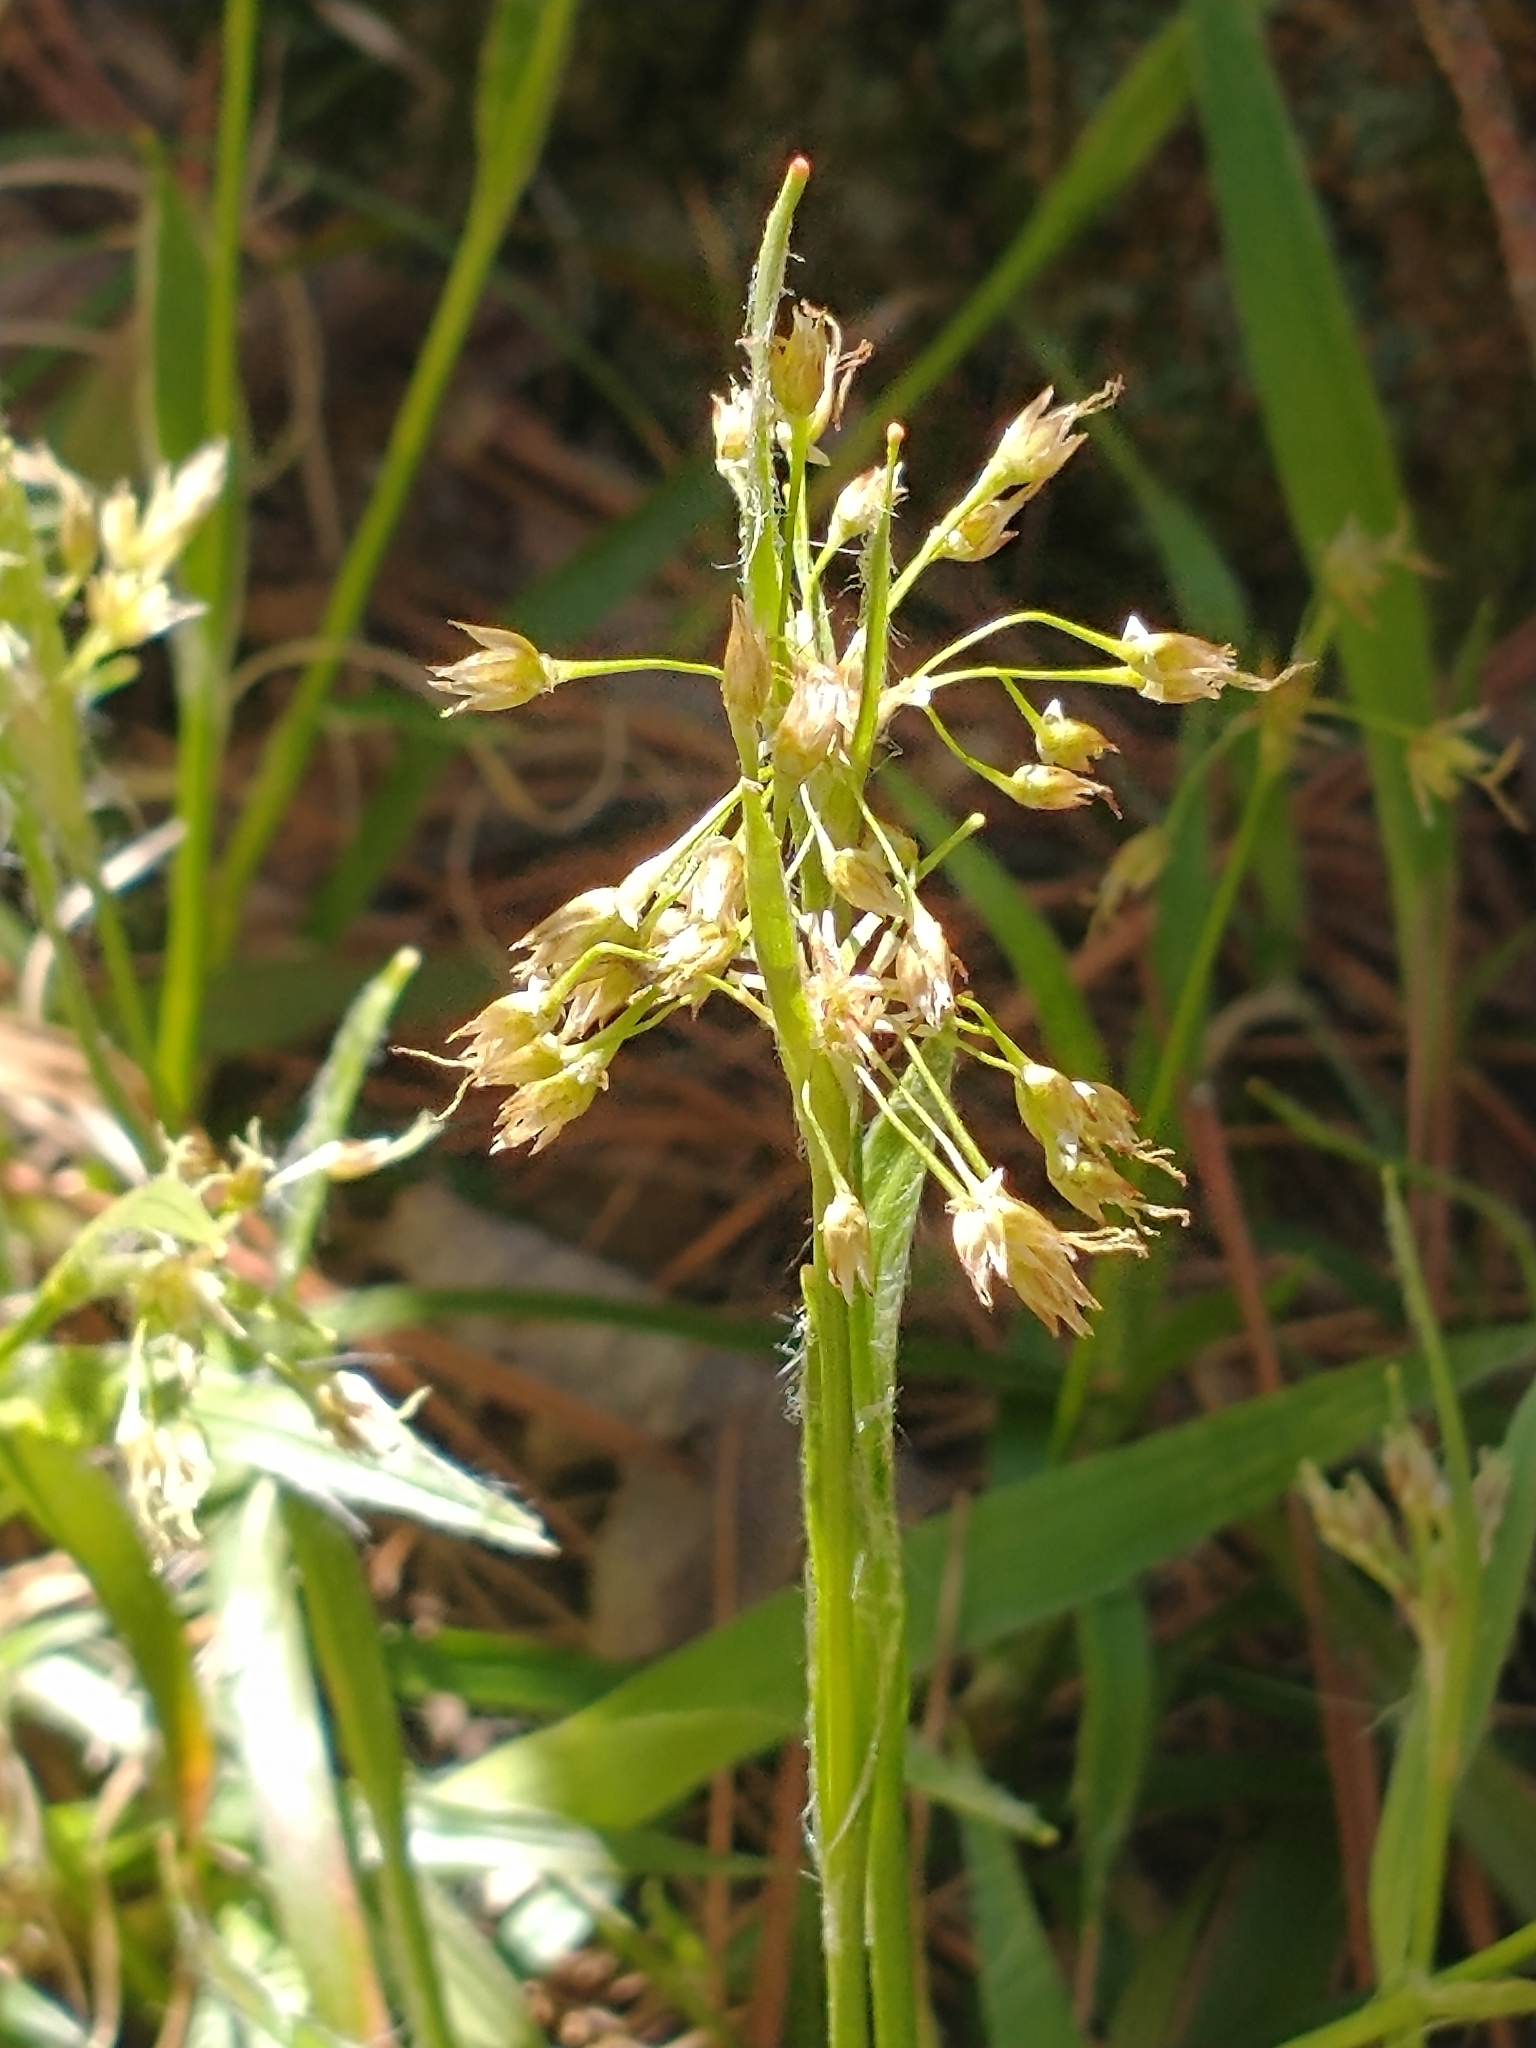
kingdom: Plantae
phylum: Tracheophyta
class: Liliopsida
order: Poales
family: Juncaceae
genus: Luzula
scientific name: Luzula acuminata
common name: Hairy woodrush
